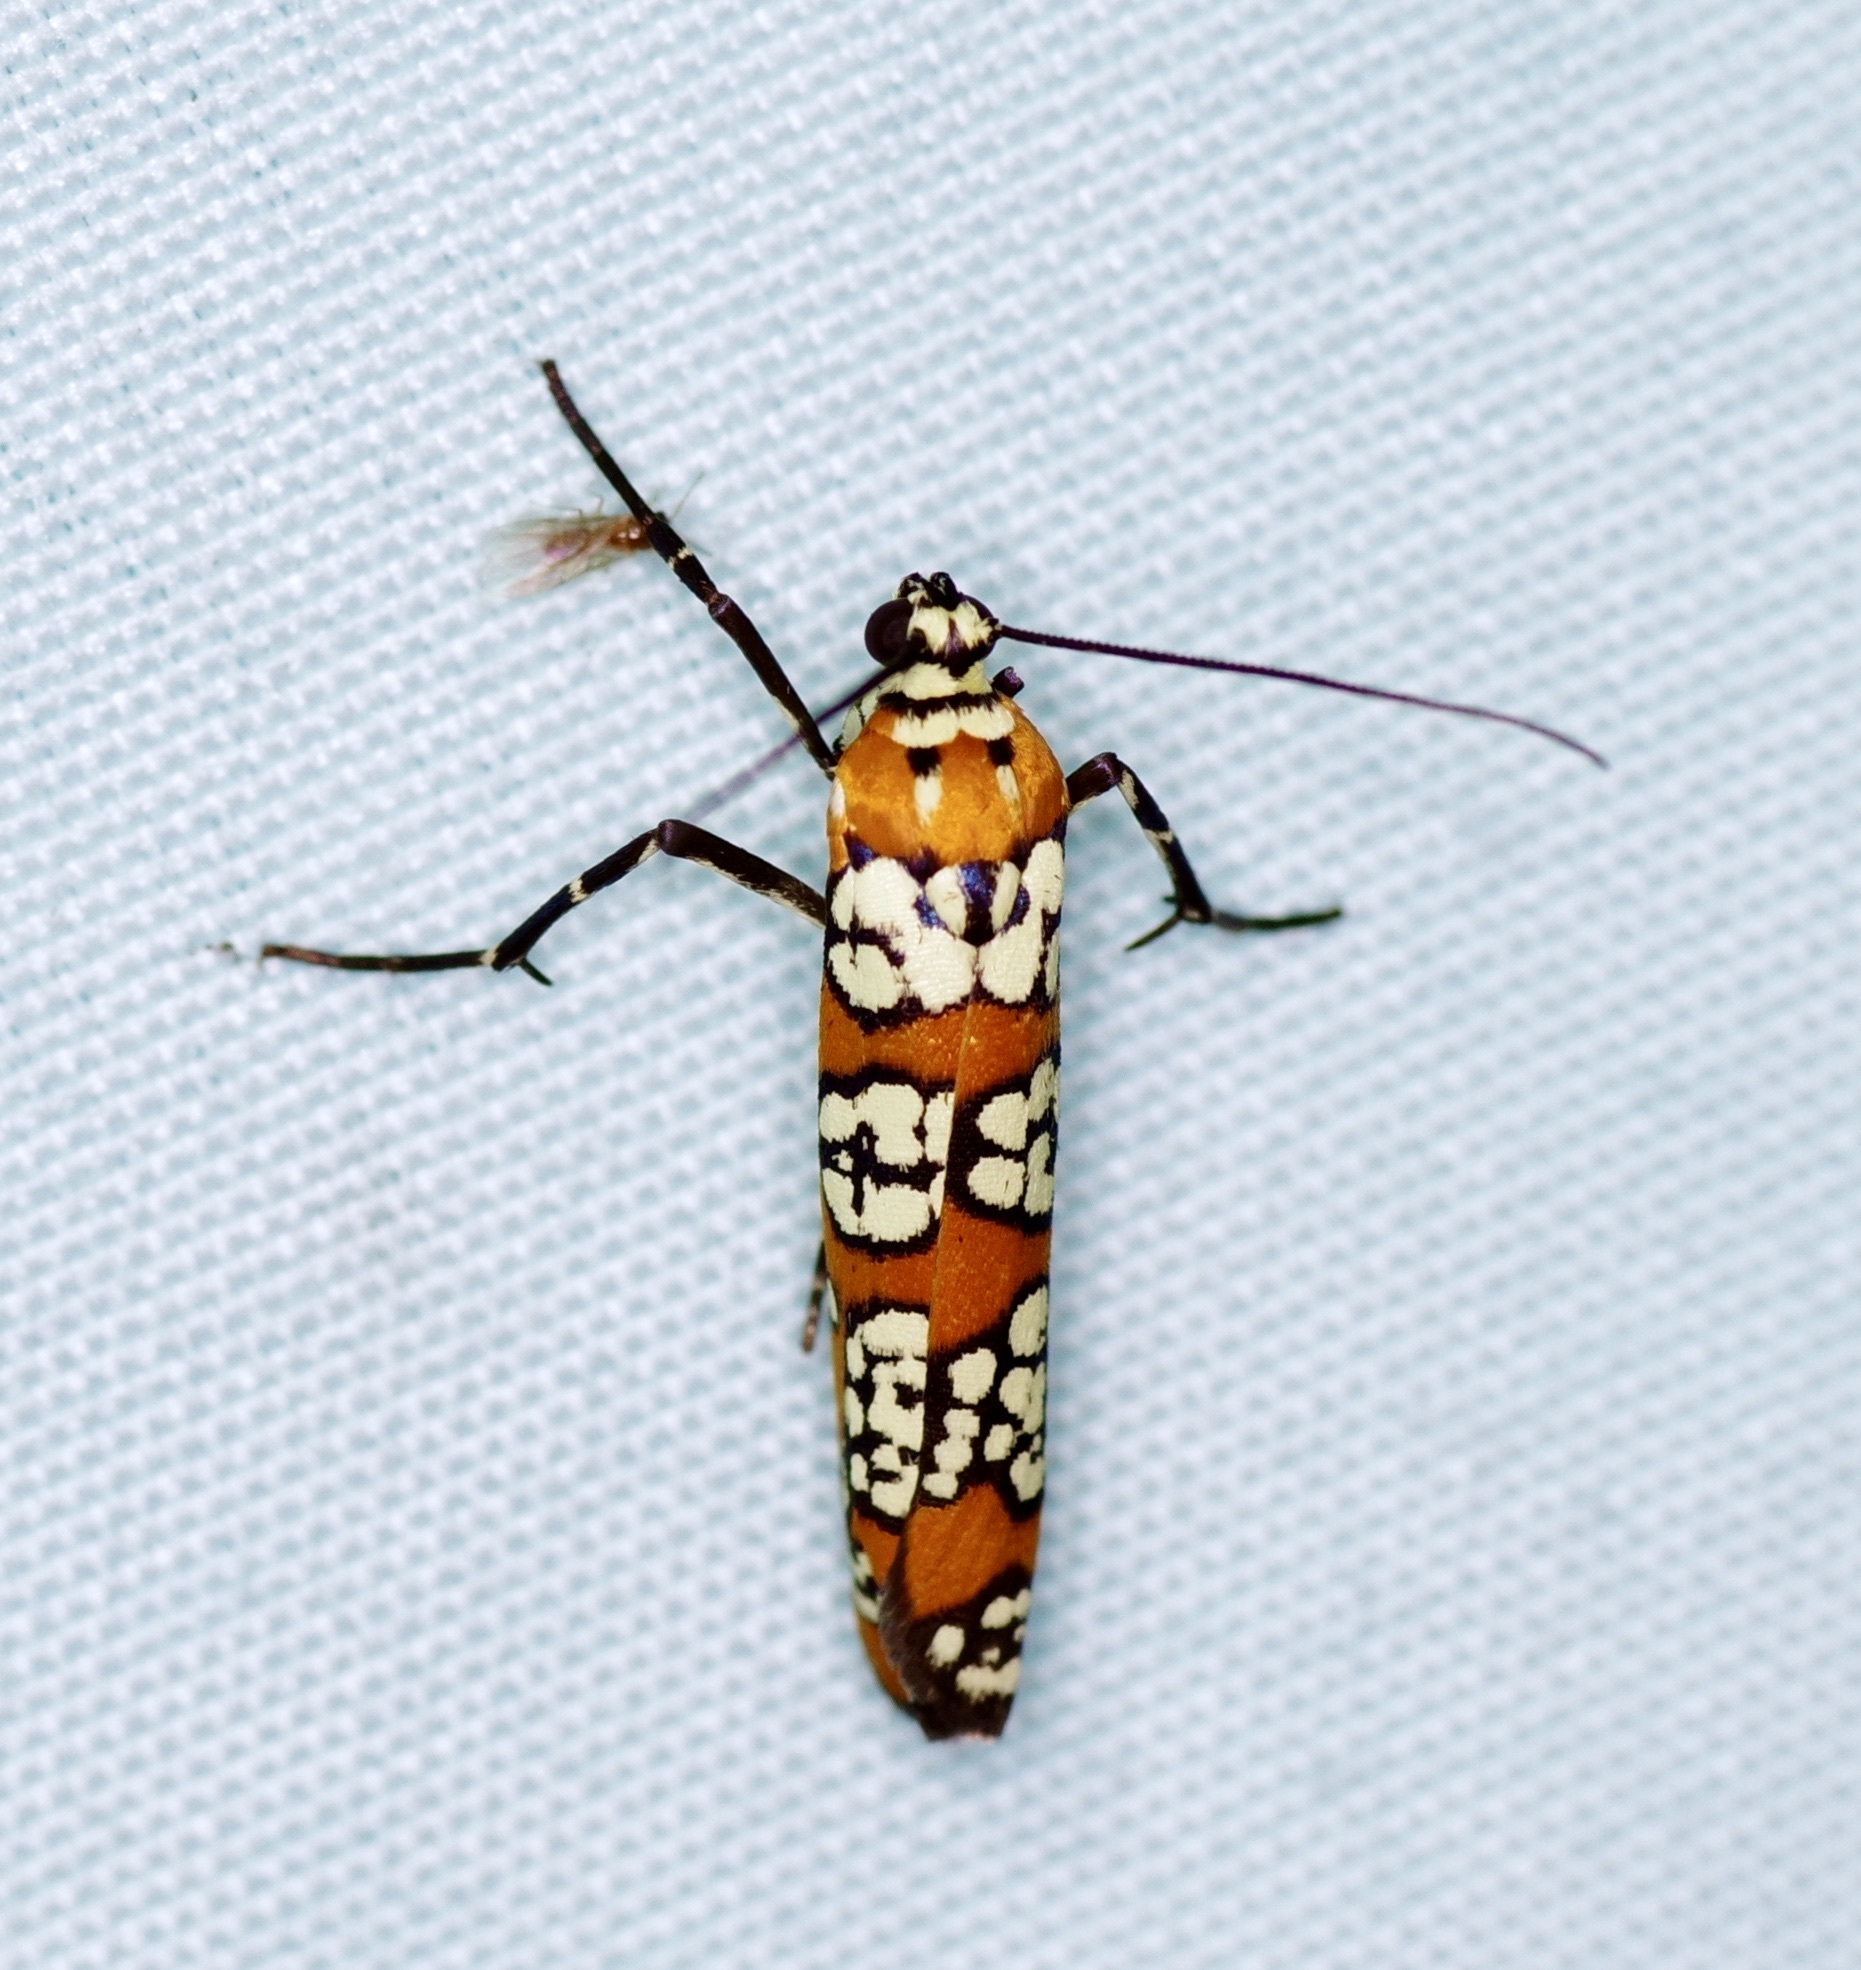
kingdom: Animalia
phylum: Arthropoda
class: Insecta
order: Lepidoptera
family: Attevidae
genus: Atteva
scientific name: Atteva punctella
